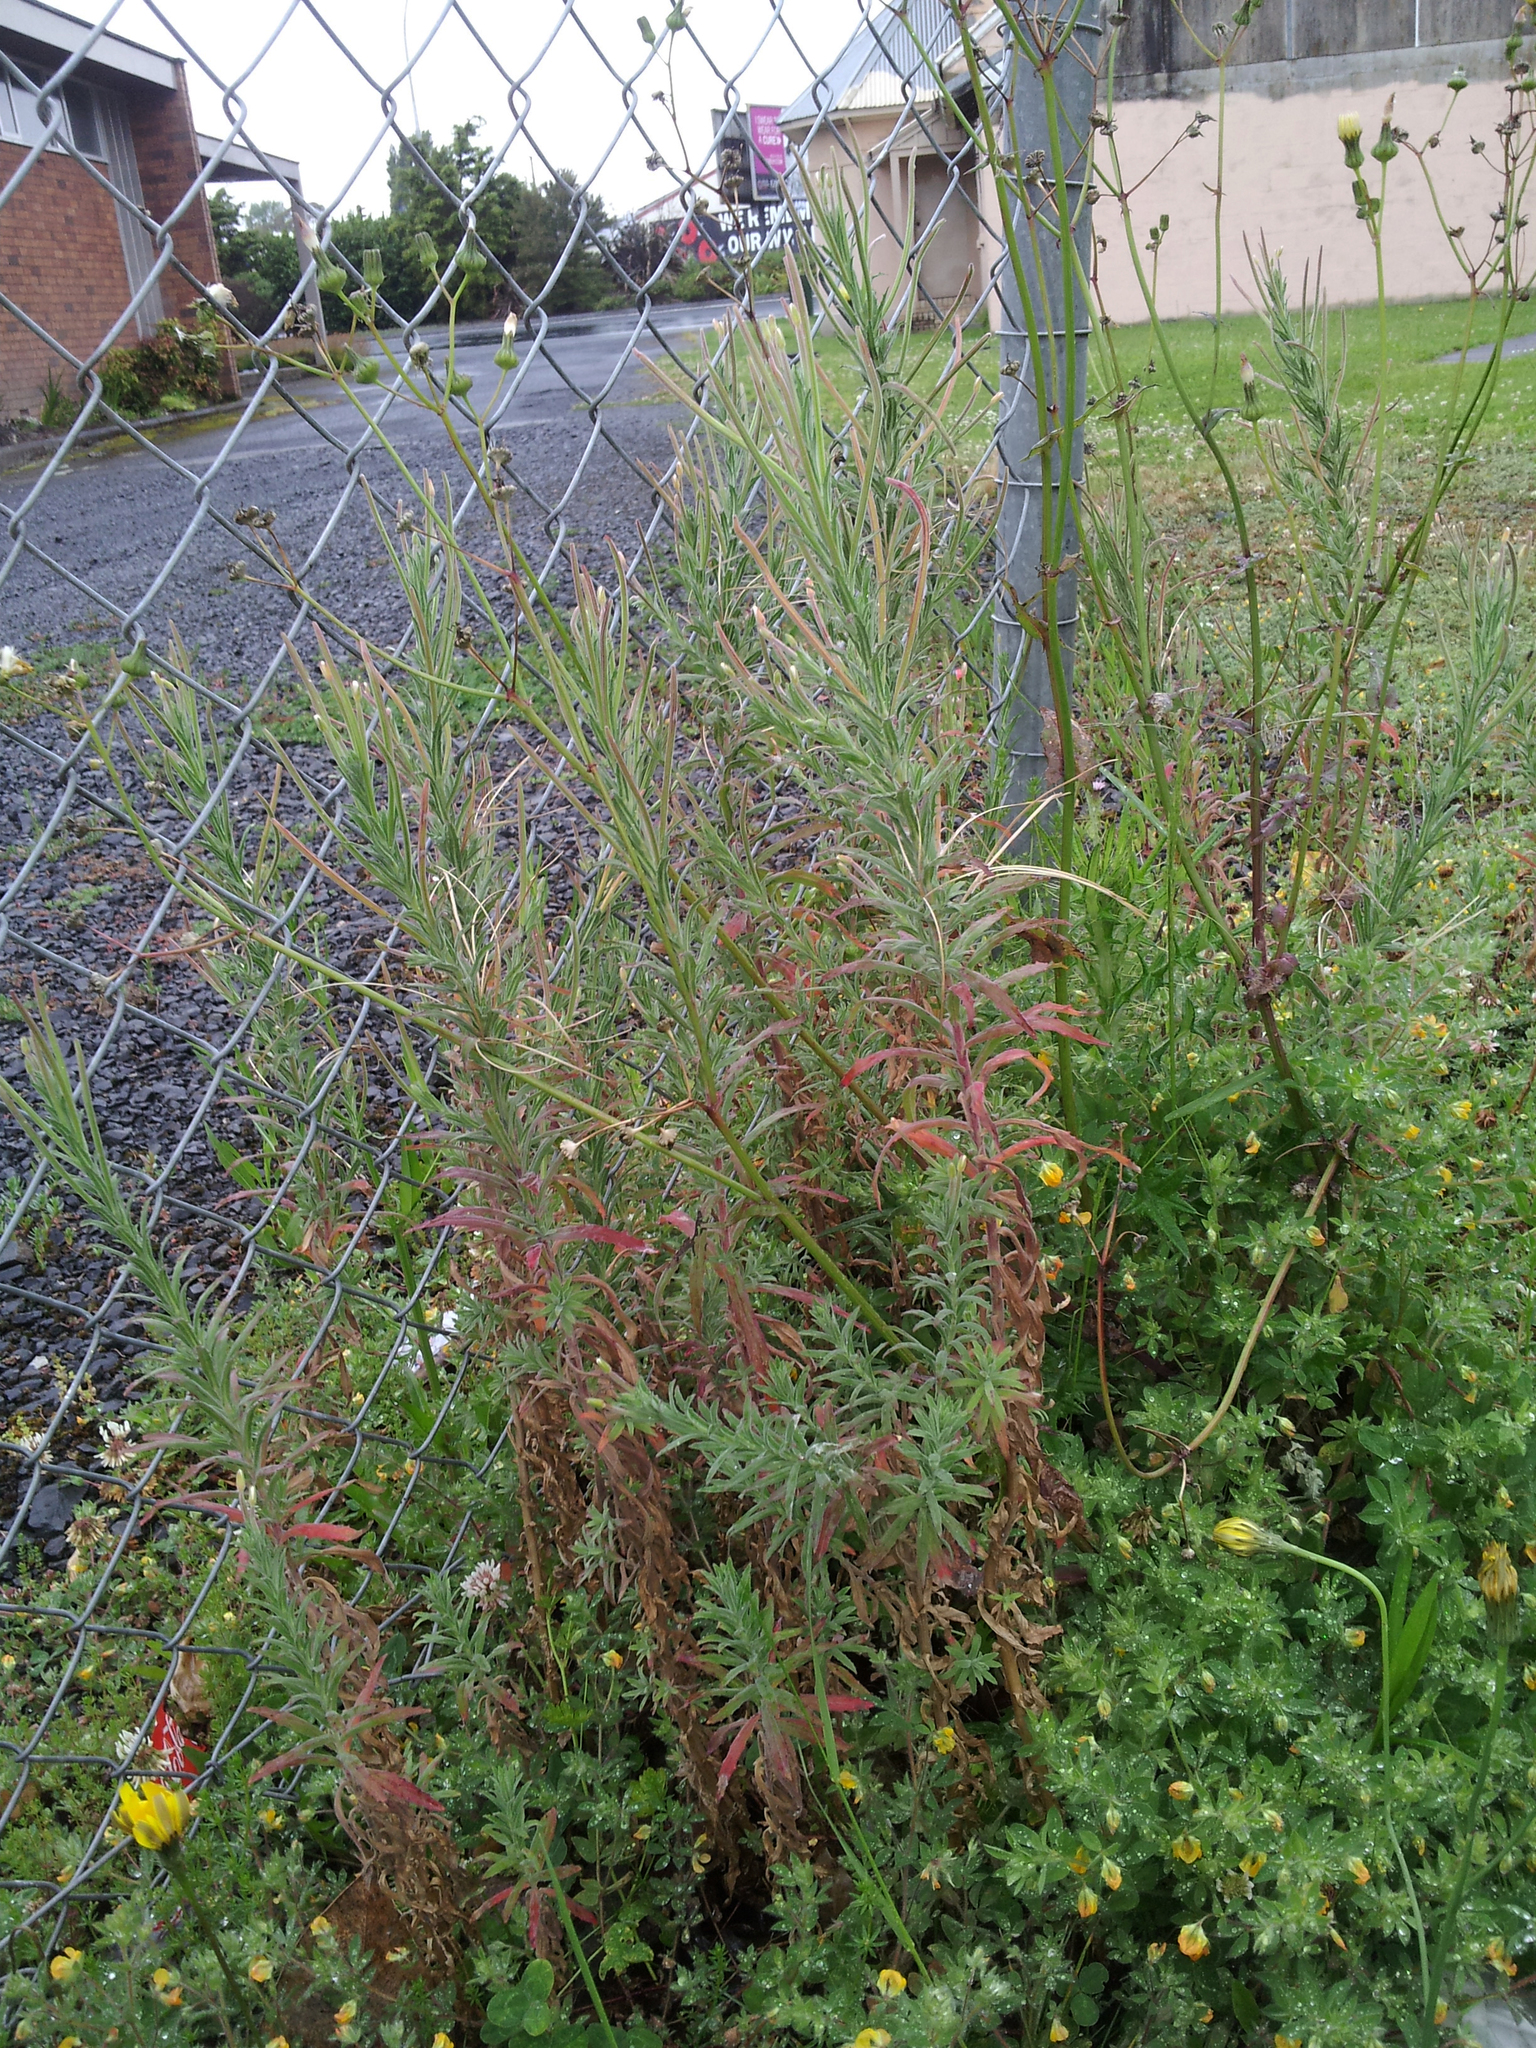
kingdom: Plantae
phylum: Tracheophyta
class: Magnoliopsida
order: Myrtales
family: Onagraceae
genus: Epilobium
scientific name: Epilobium hirtigerum
